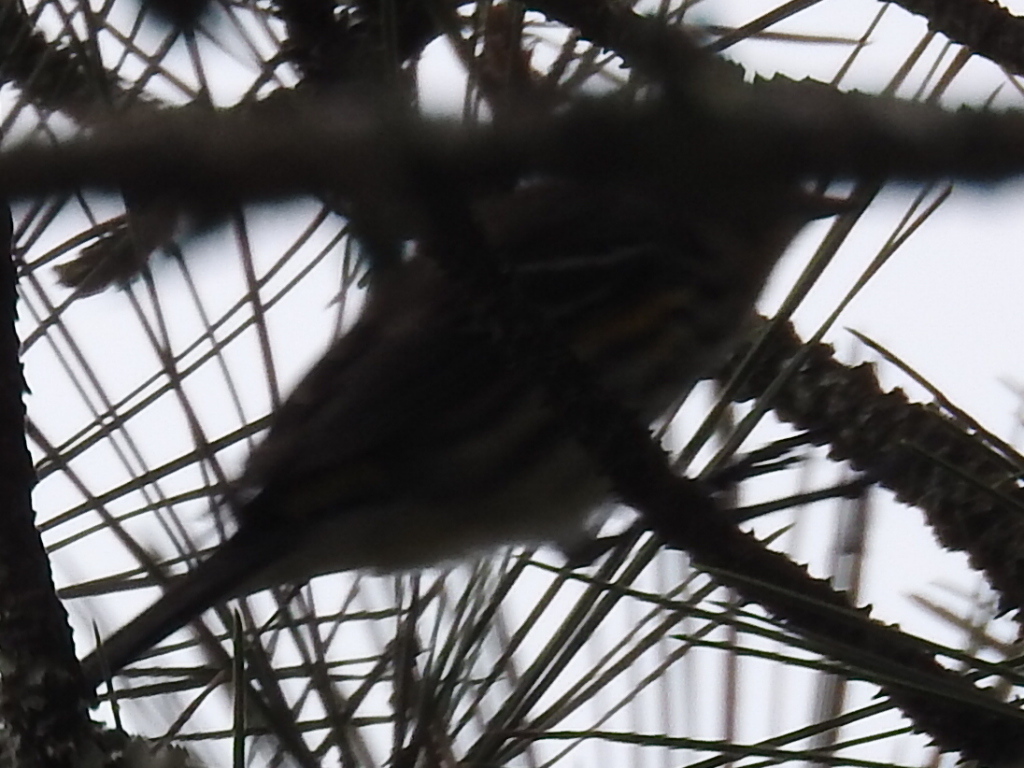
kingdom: Animalia
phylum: Chordata
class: Aves
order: Passeriformes
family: Parulidae
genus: Setophaga
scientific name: Setophaga coronata
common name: Myrtle warbler
